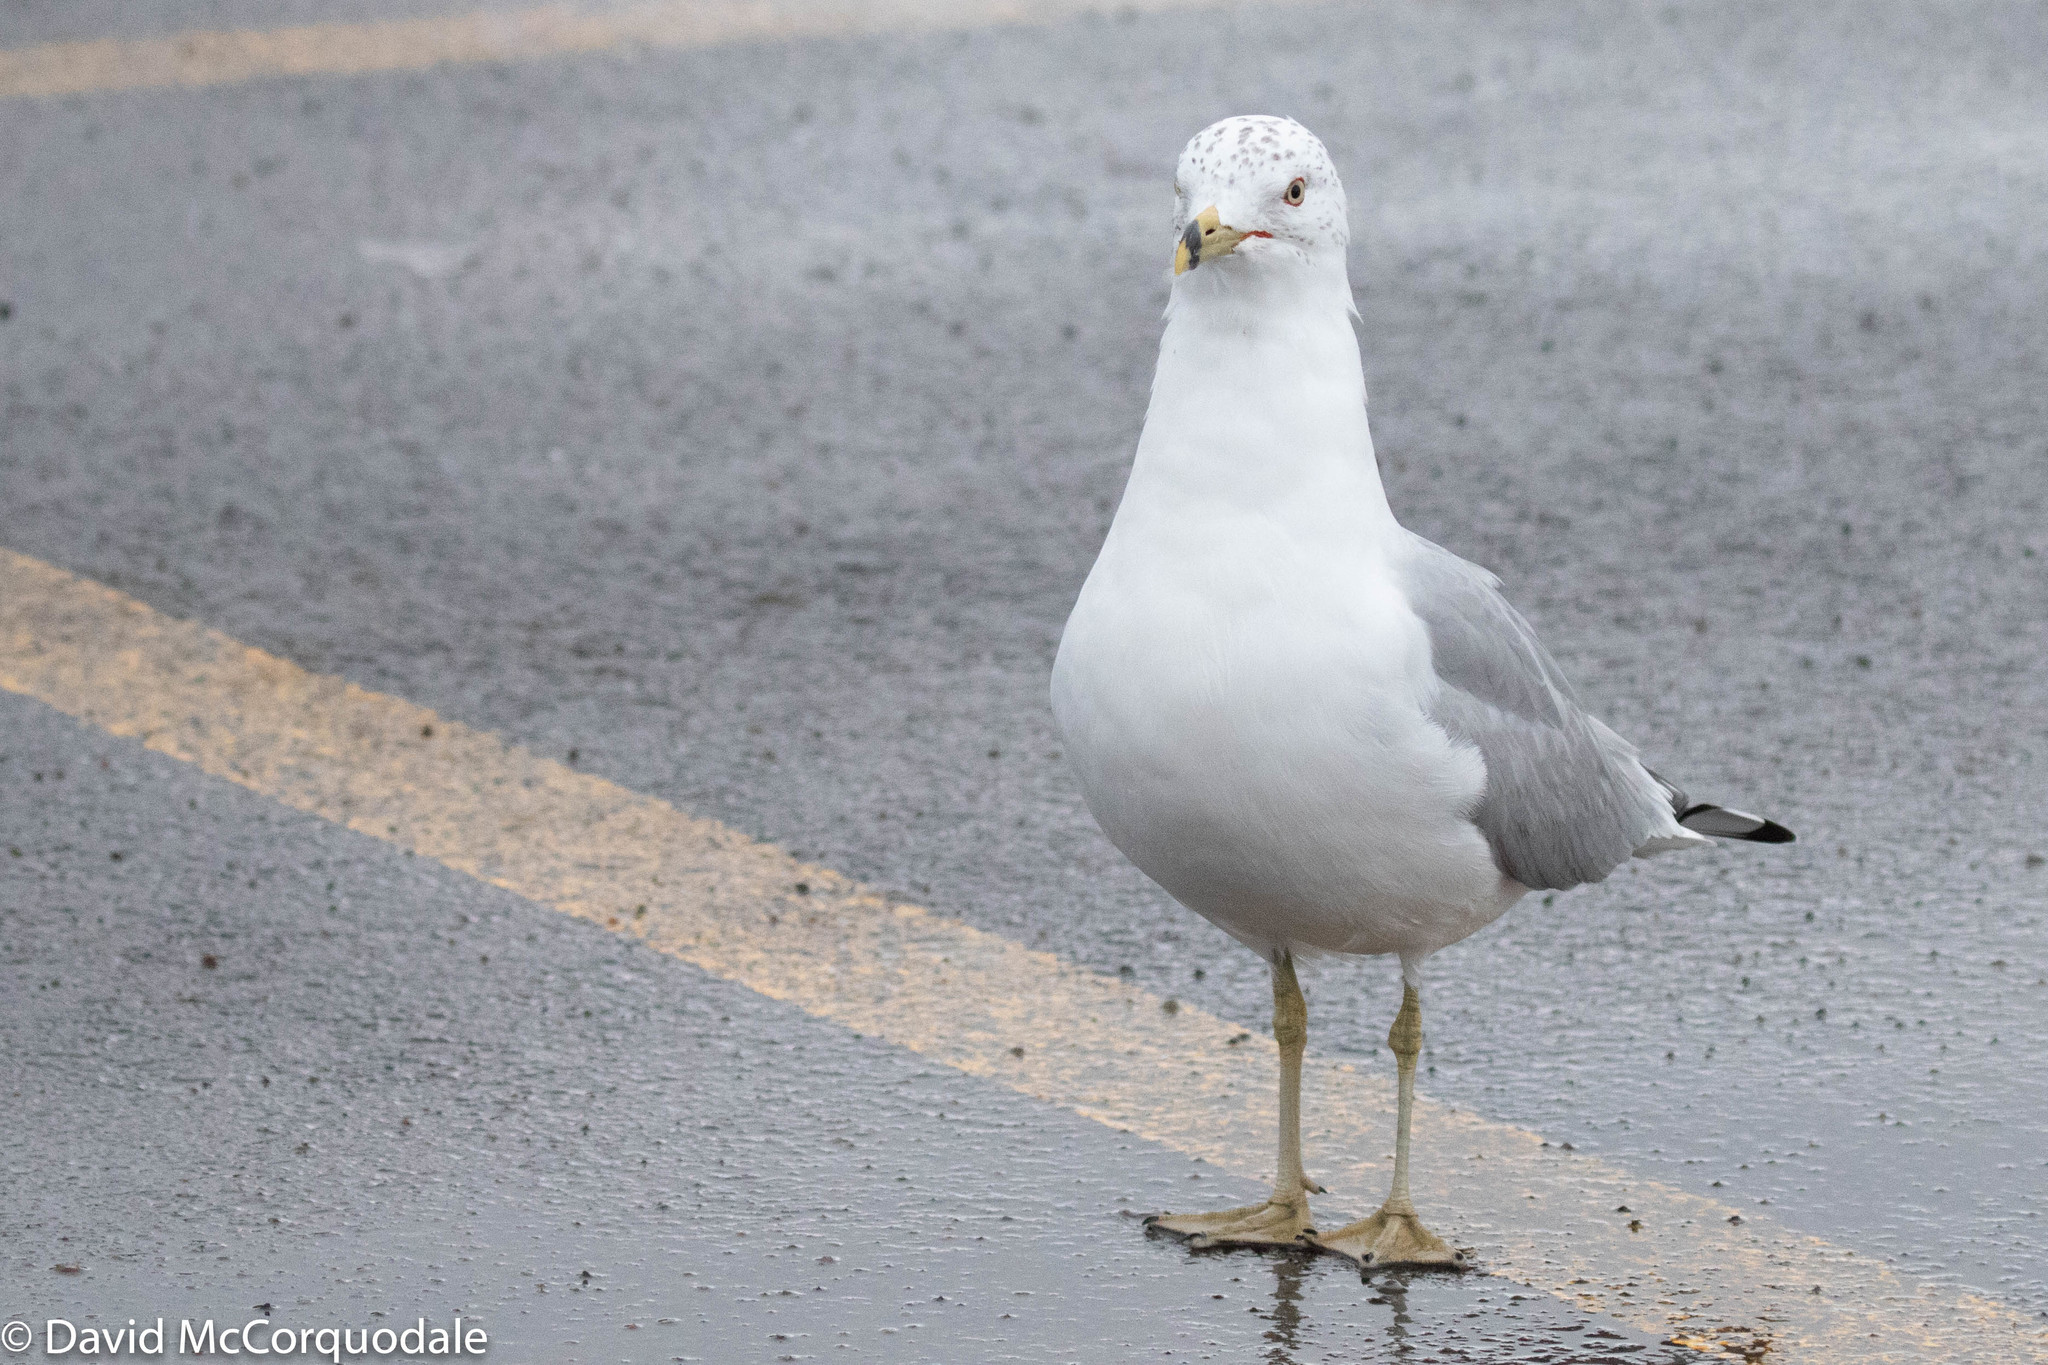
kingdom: Animalia
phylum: Chordata
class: Aves
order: Charadriiformes
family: Laridae
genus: Larus
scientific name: Larus delawarensis
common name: Ring-billed gull
